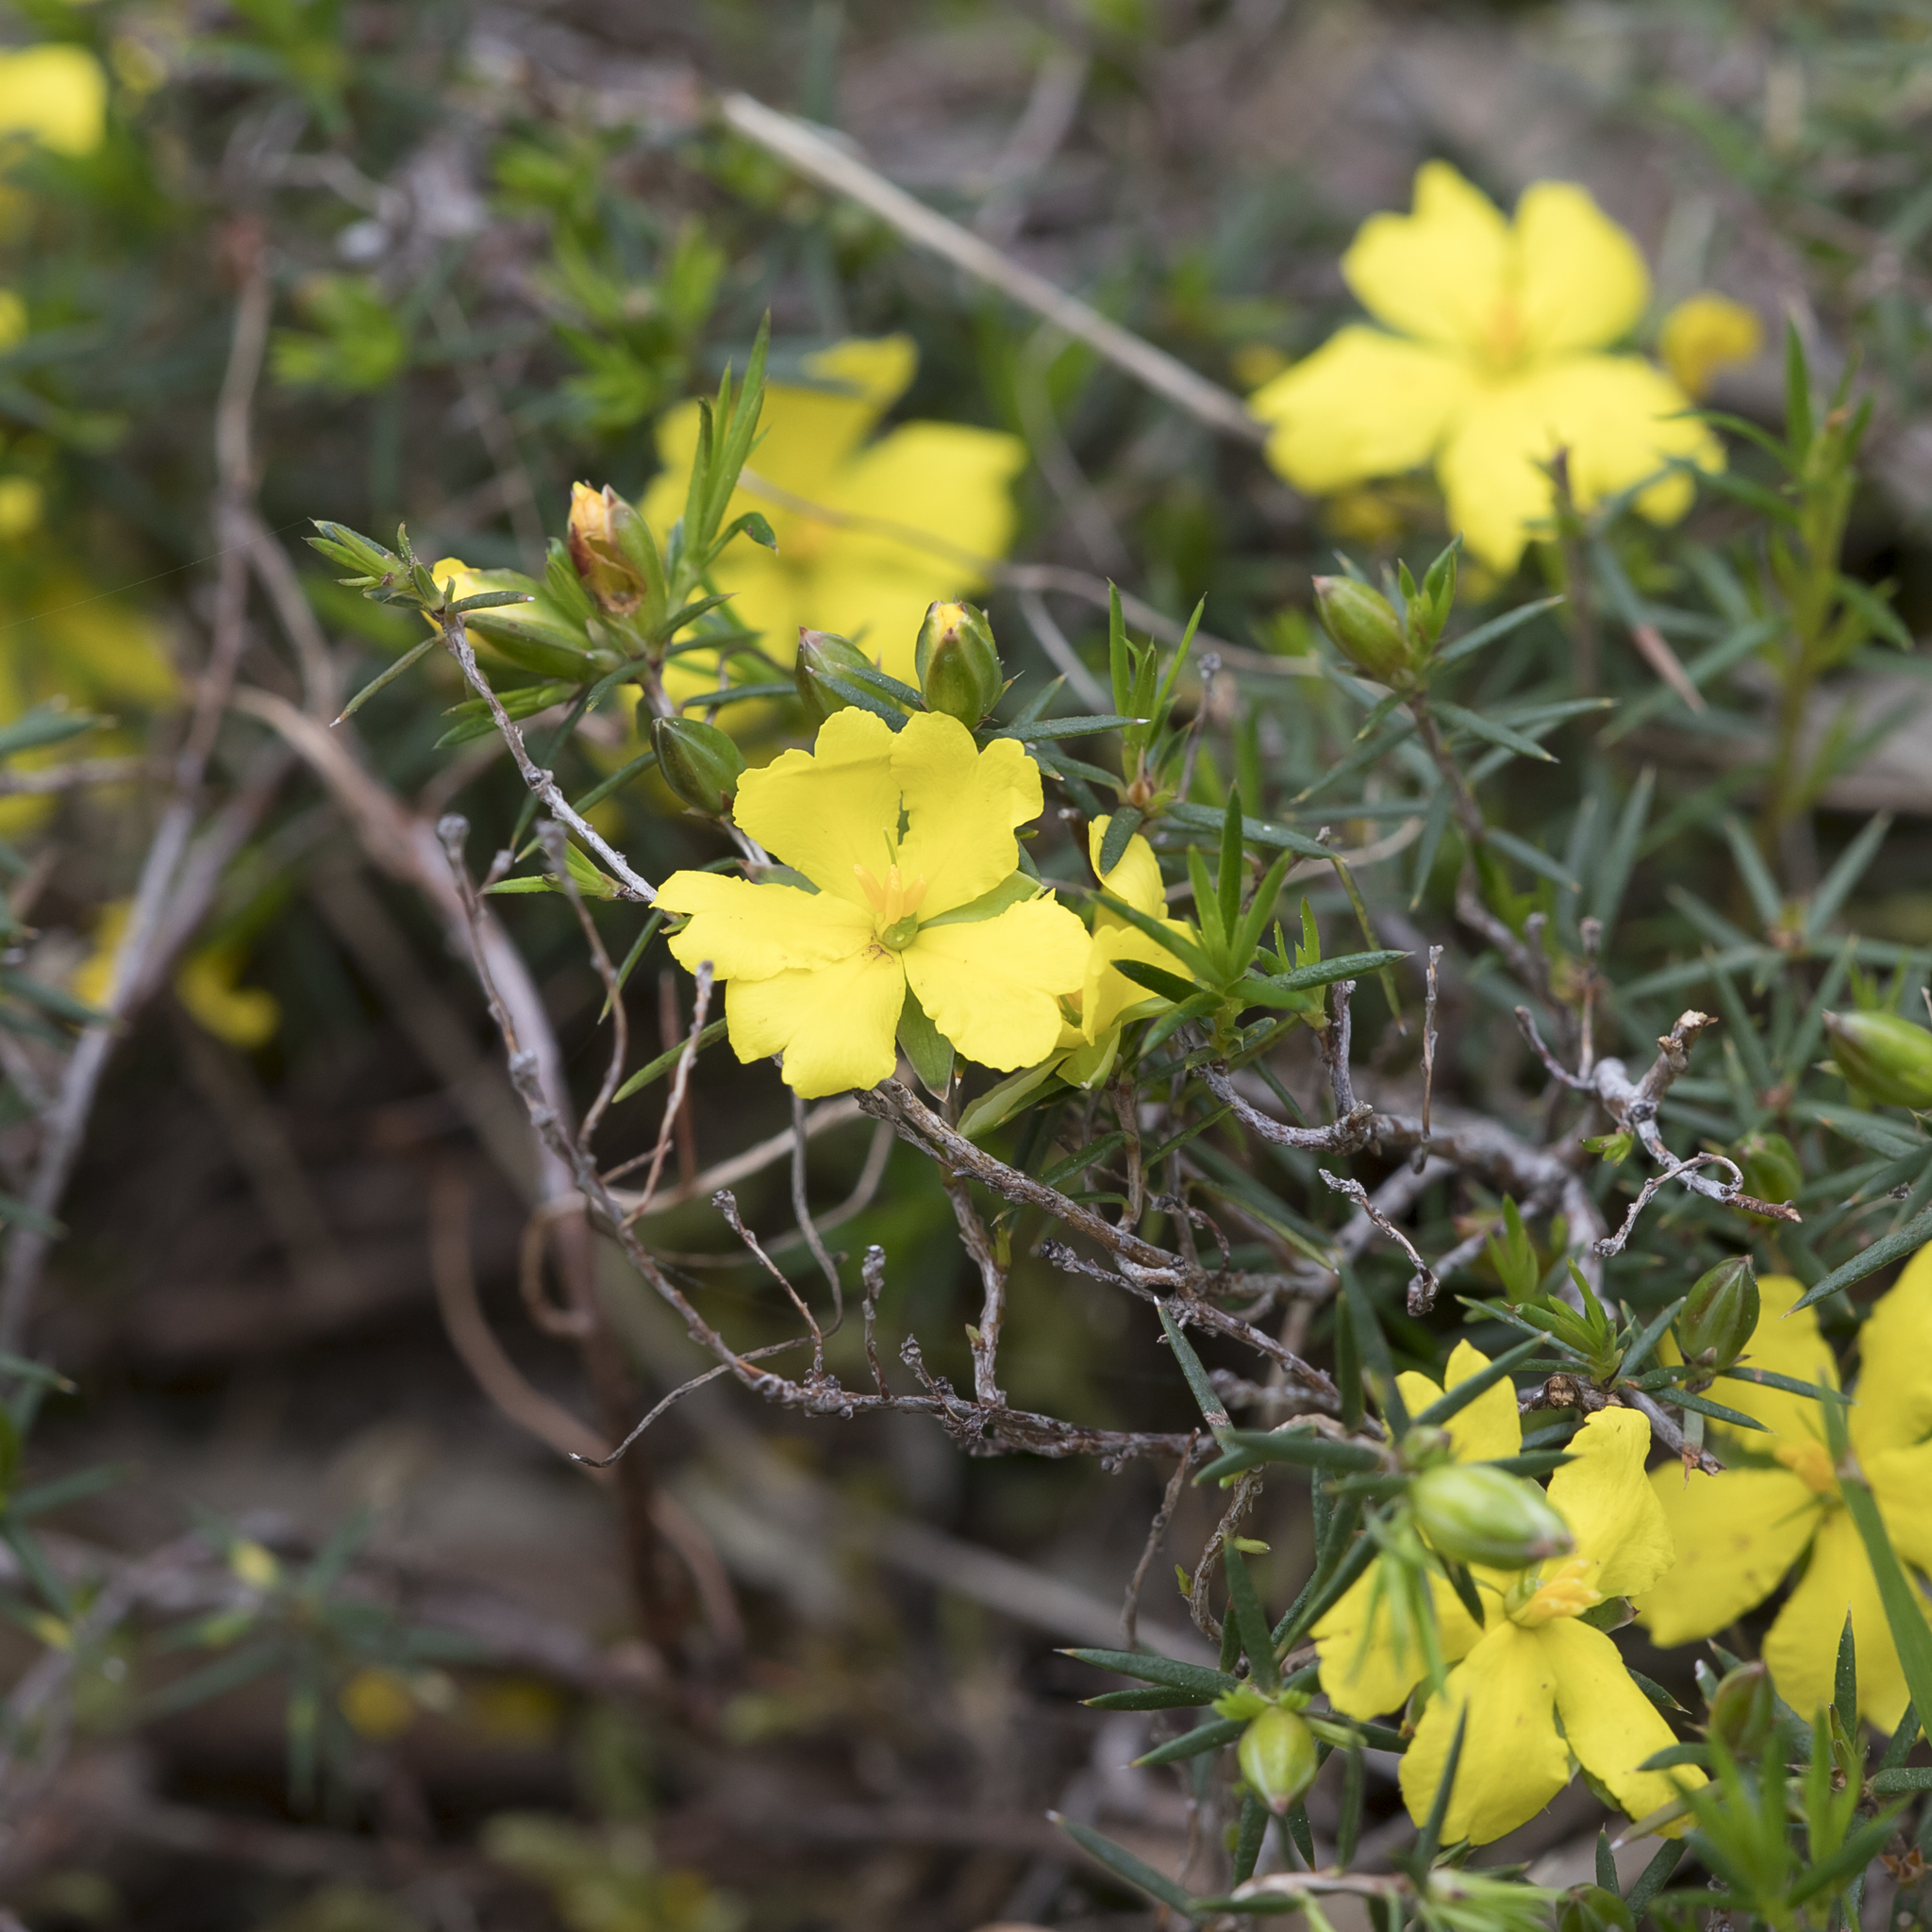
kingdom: Plantae
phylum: Tracheophyta
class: Magnoliopsida
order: Dilleniales
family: Dilleniaceae
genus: Hibbertia
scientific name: Hibbertia exutiacies
